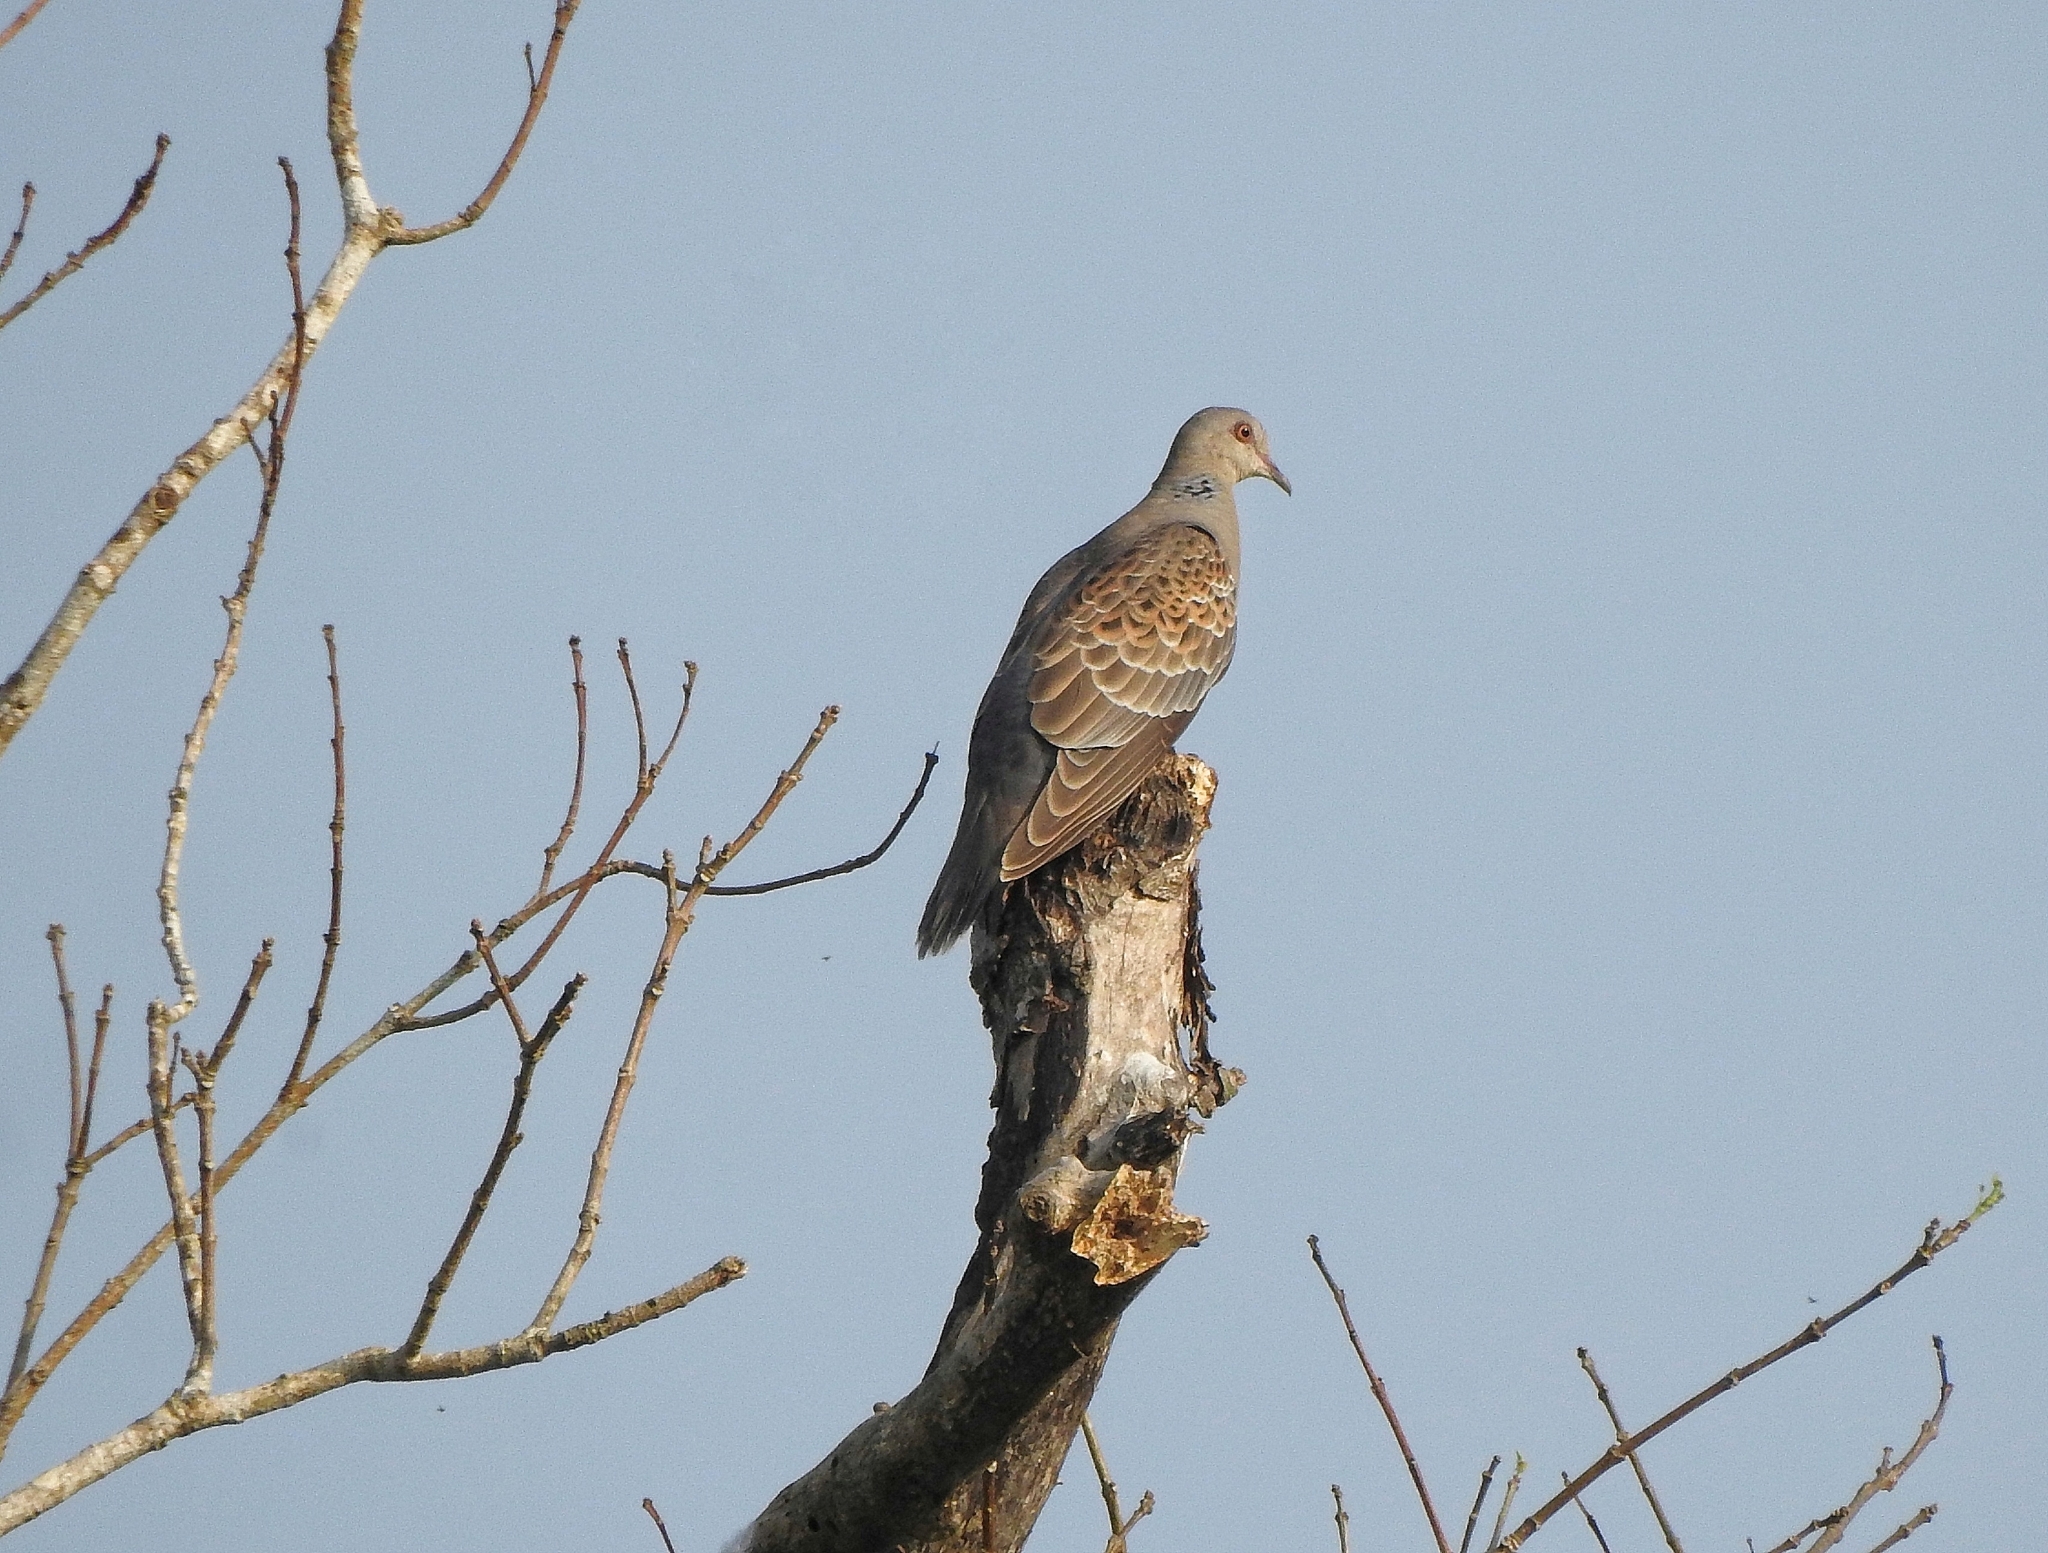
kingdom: Animalia
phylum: Chordata
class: Aves
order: Columbiformes
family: Columbidae
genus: Streptopelia
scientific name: Streptopelia orientalis
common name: Oriental turtle dove
